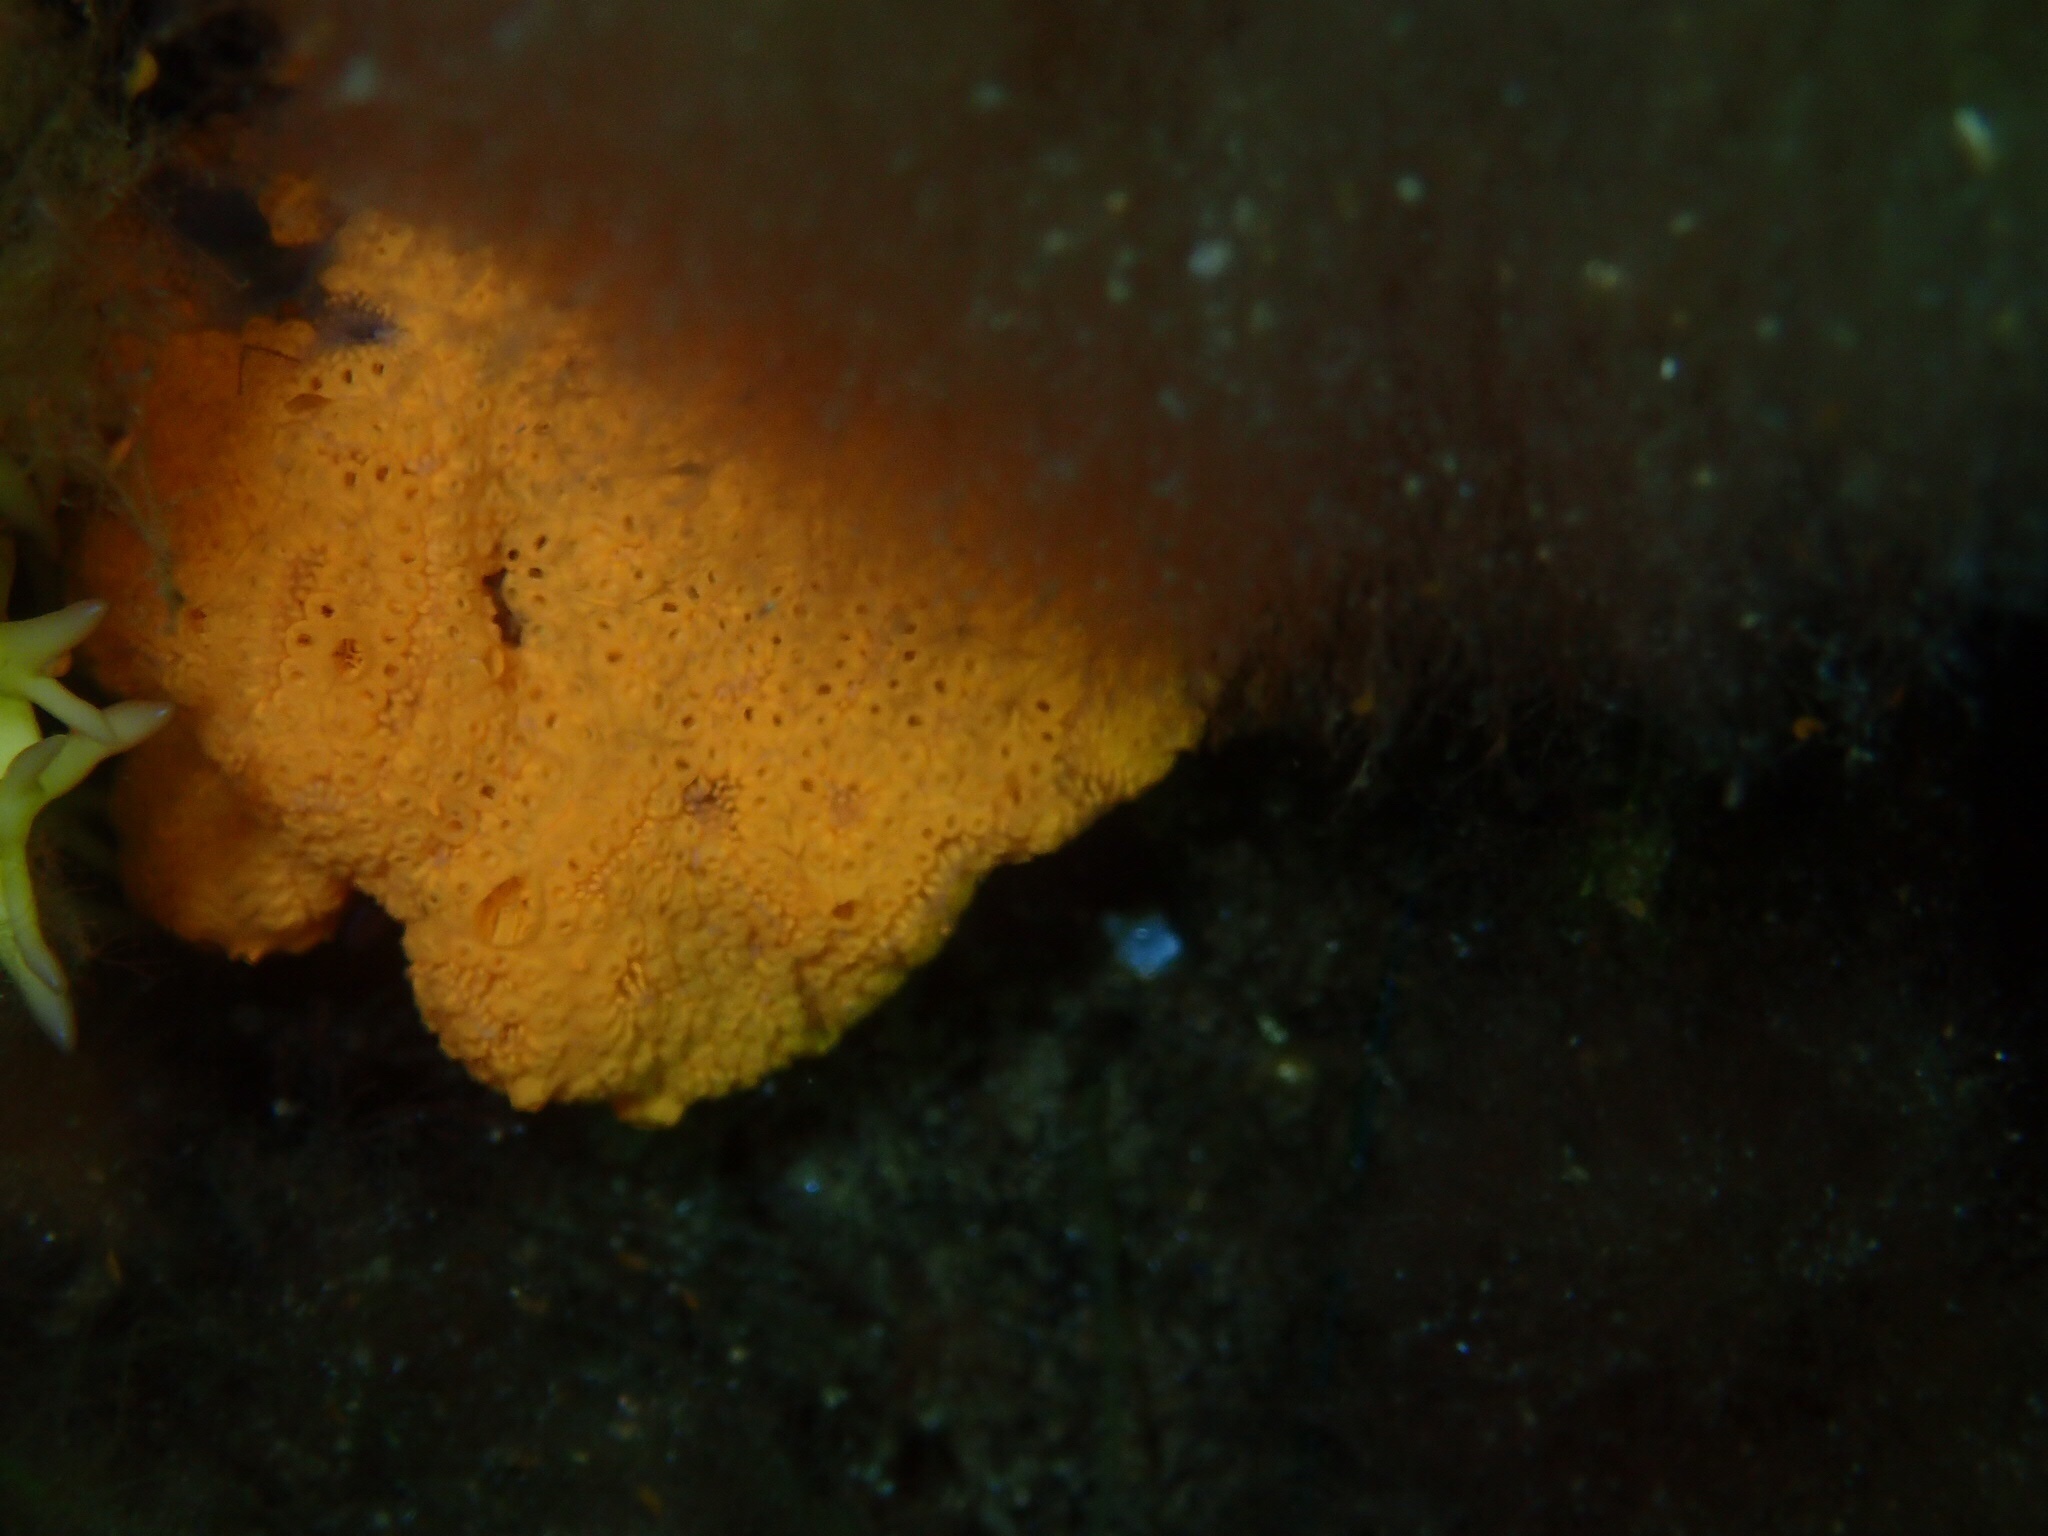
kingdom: Animalia
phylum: Chordata
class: Ascidiacea
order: Stolidobranchia
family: Styelidae
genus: Botrylloides
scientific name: Botrylloides violaceus
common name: Colonial sea squirt
